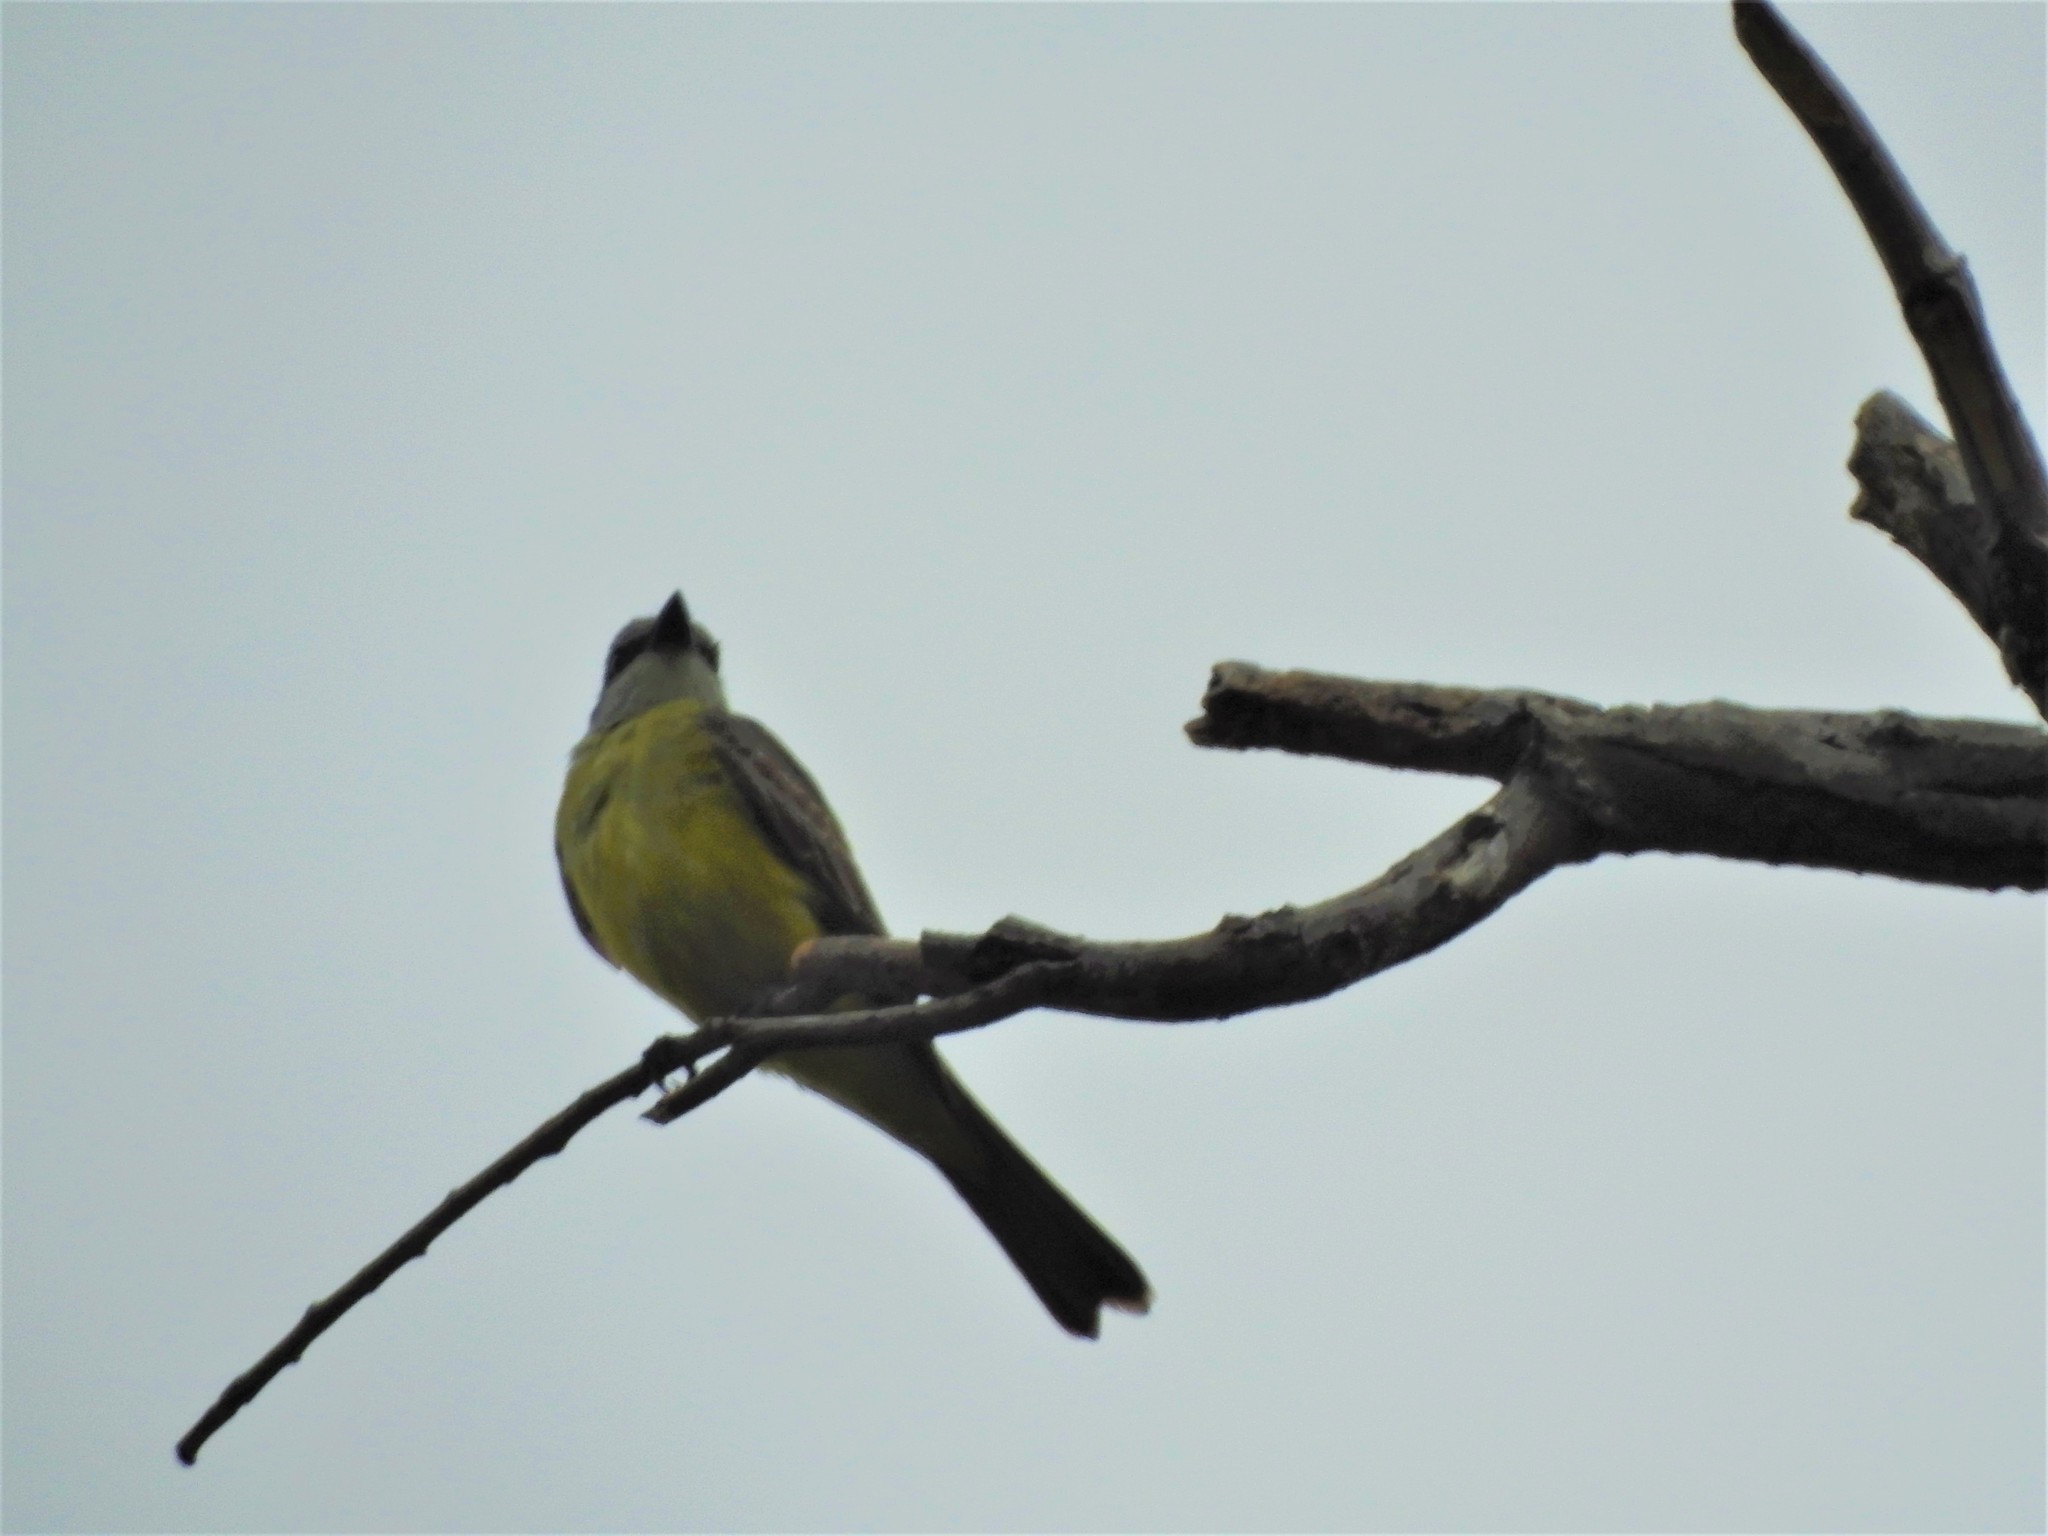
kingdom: Animalia
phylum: Chordata
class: Aves
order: Passeriformes
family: Tyrannidae
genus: Tyrannus
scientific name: Tyrannus melancholicus
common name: Tropical kingbird
